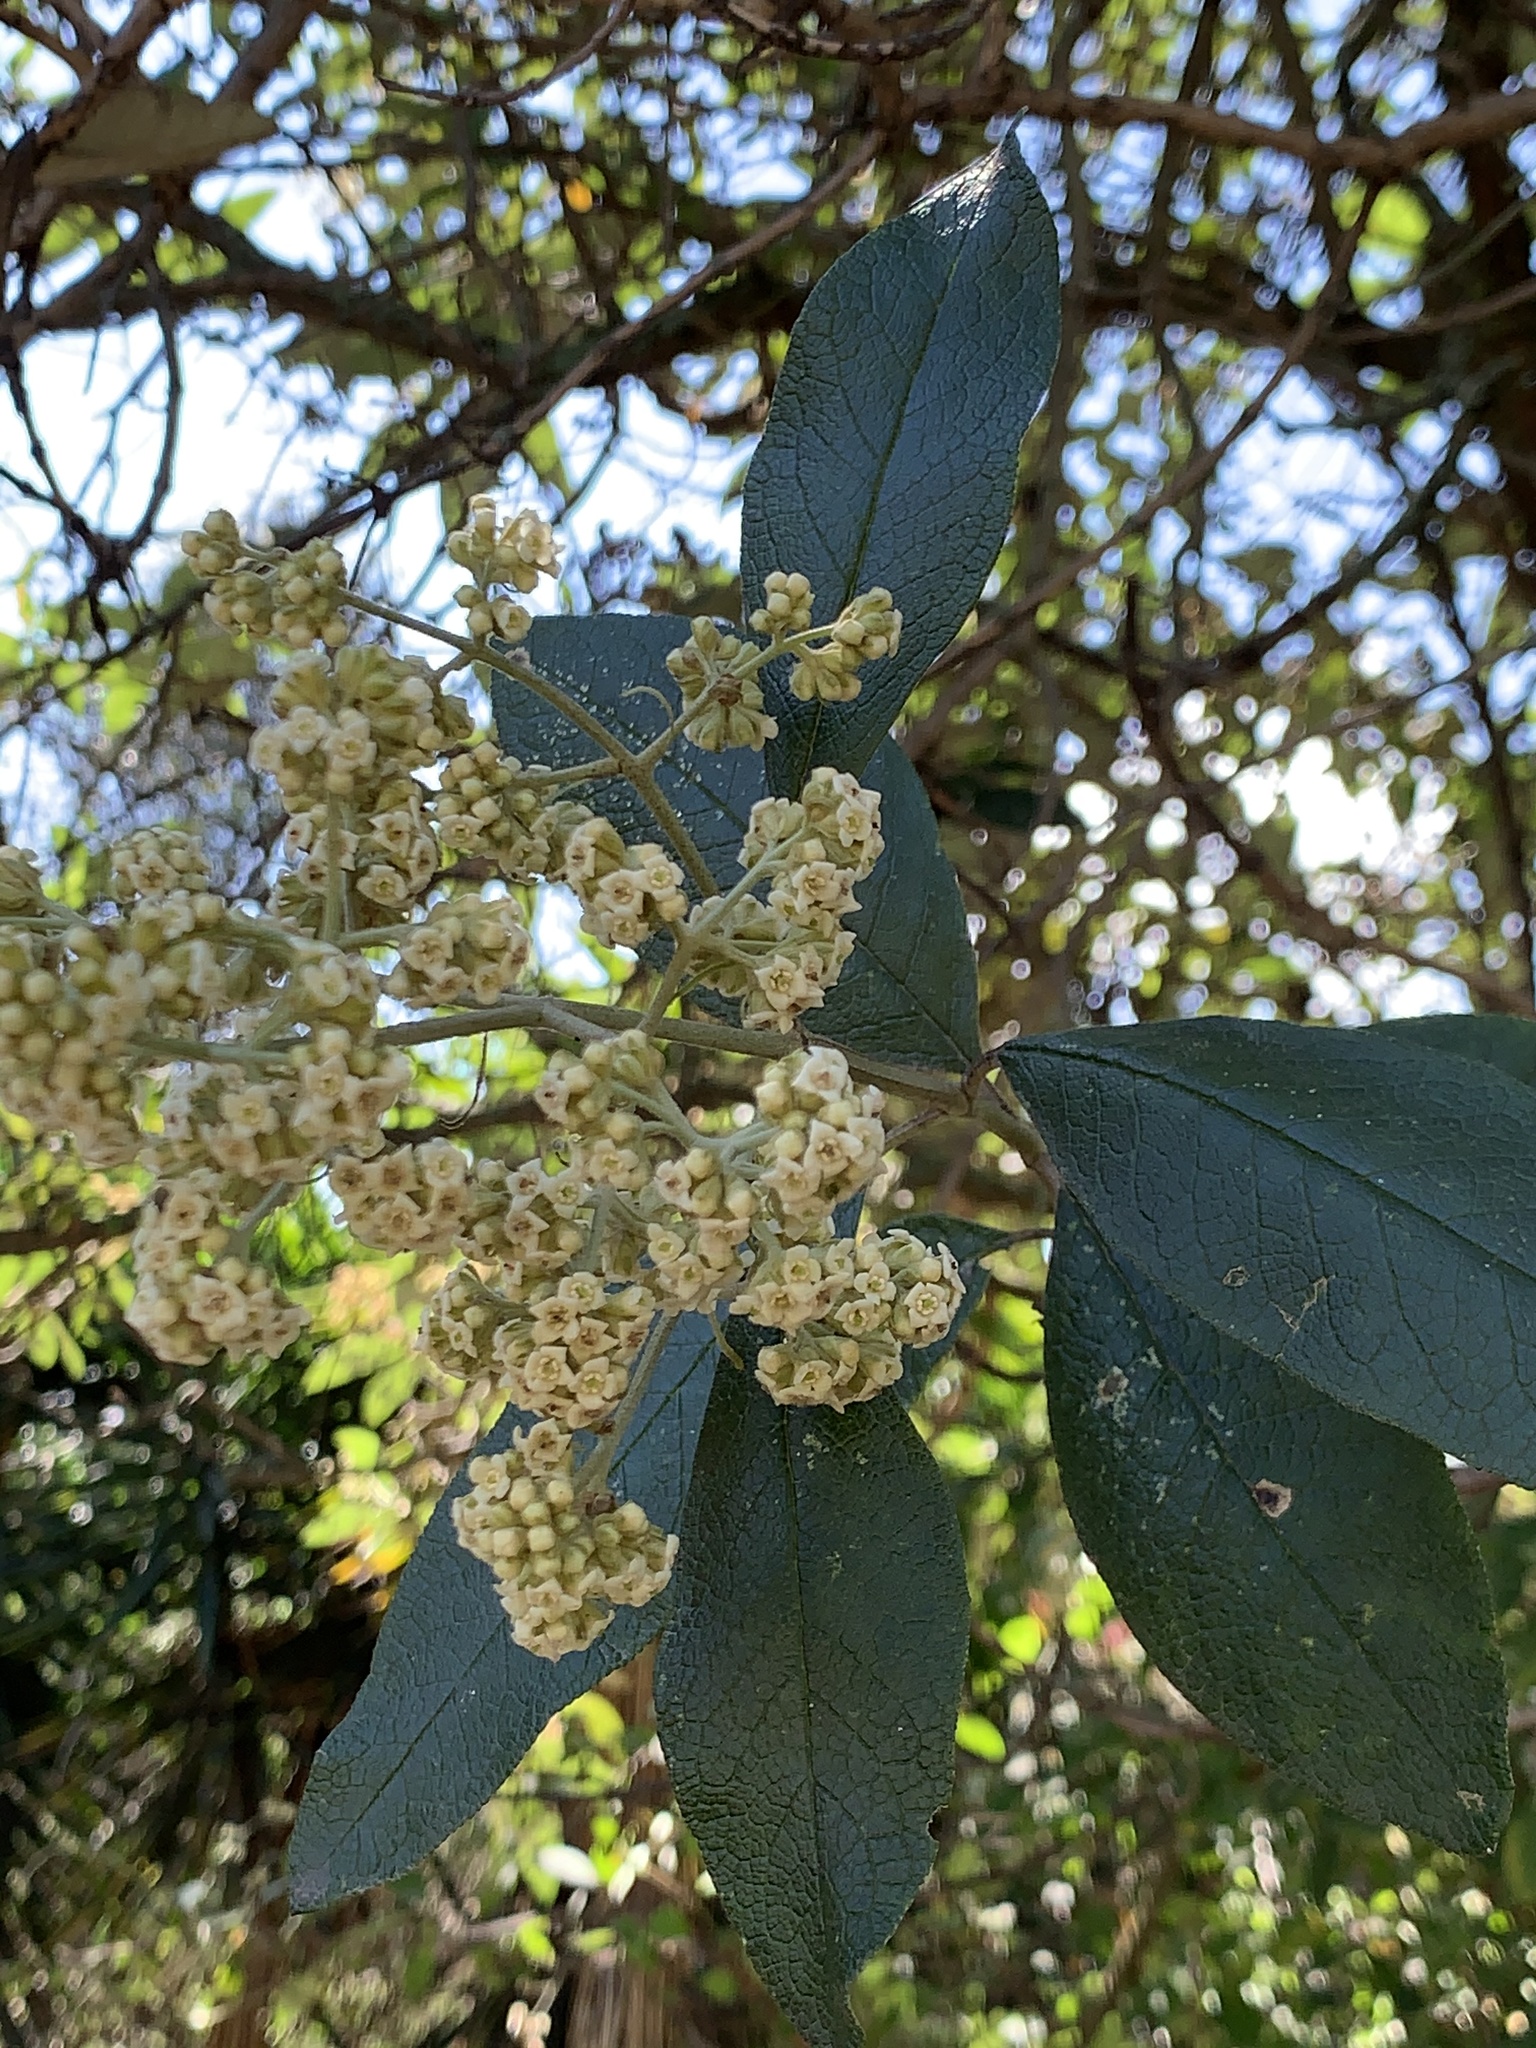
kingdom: Plantae
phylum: Tracheophyta
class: Magnoliopsida
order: Lamiales
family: Scrophulariaceae
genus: Buddleja
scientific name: Buddleja bullata
